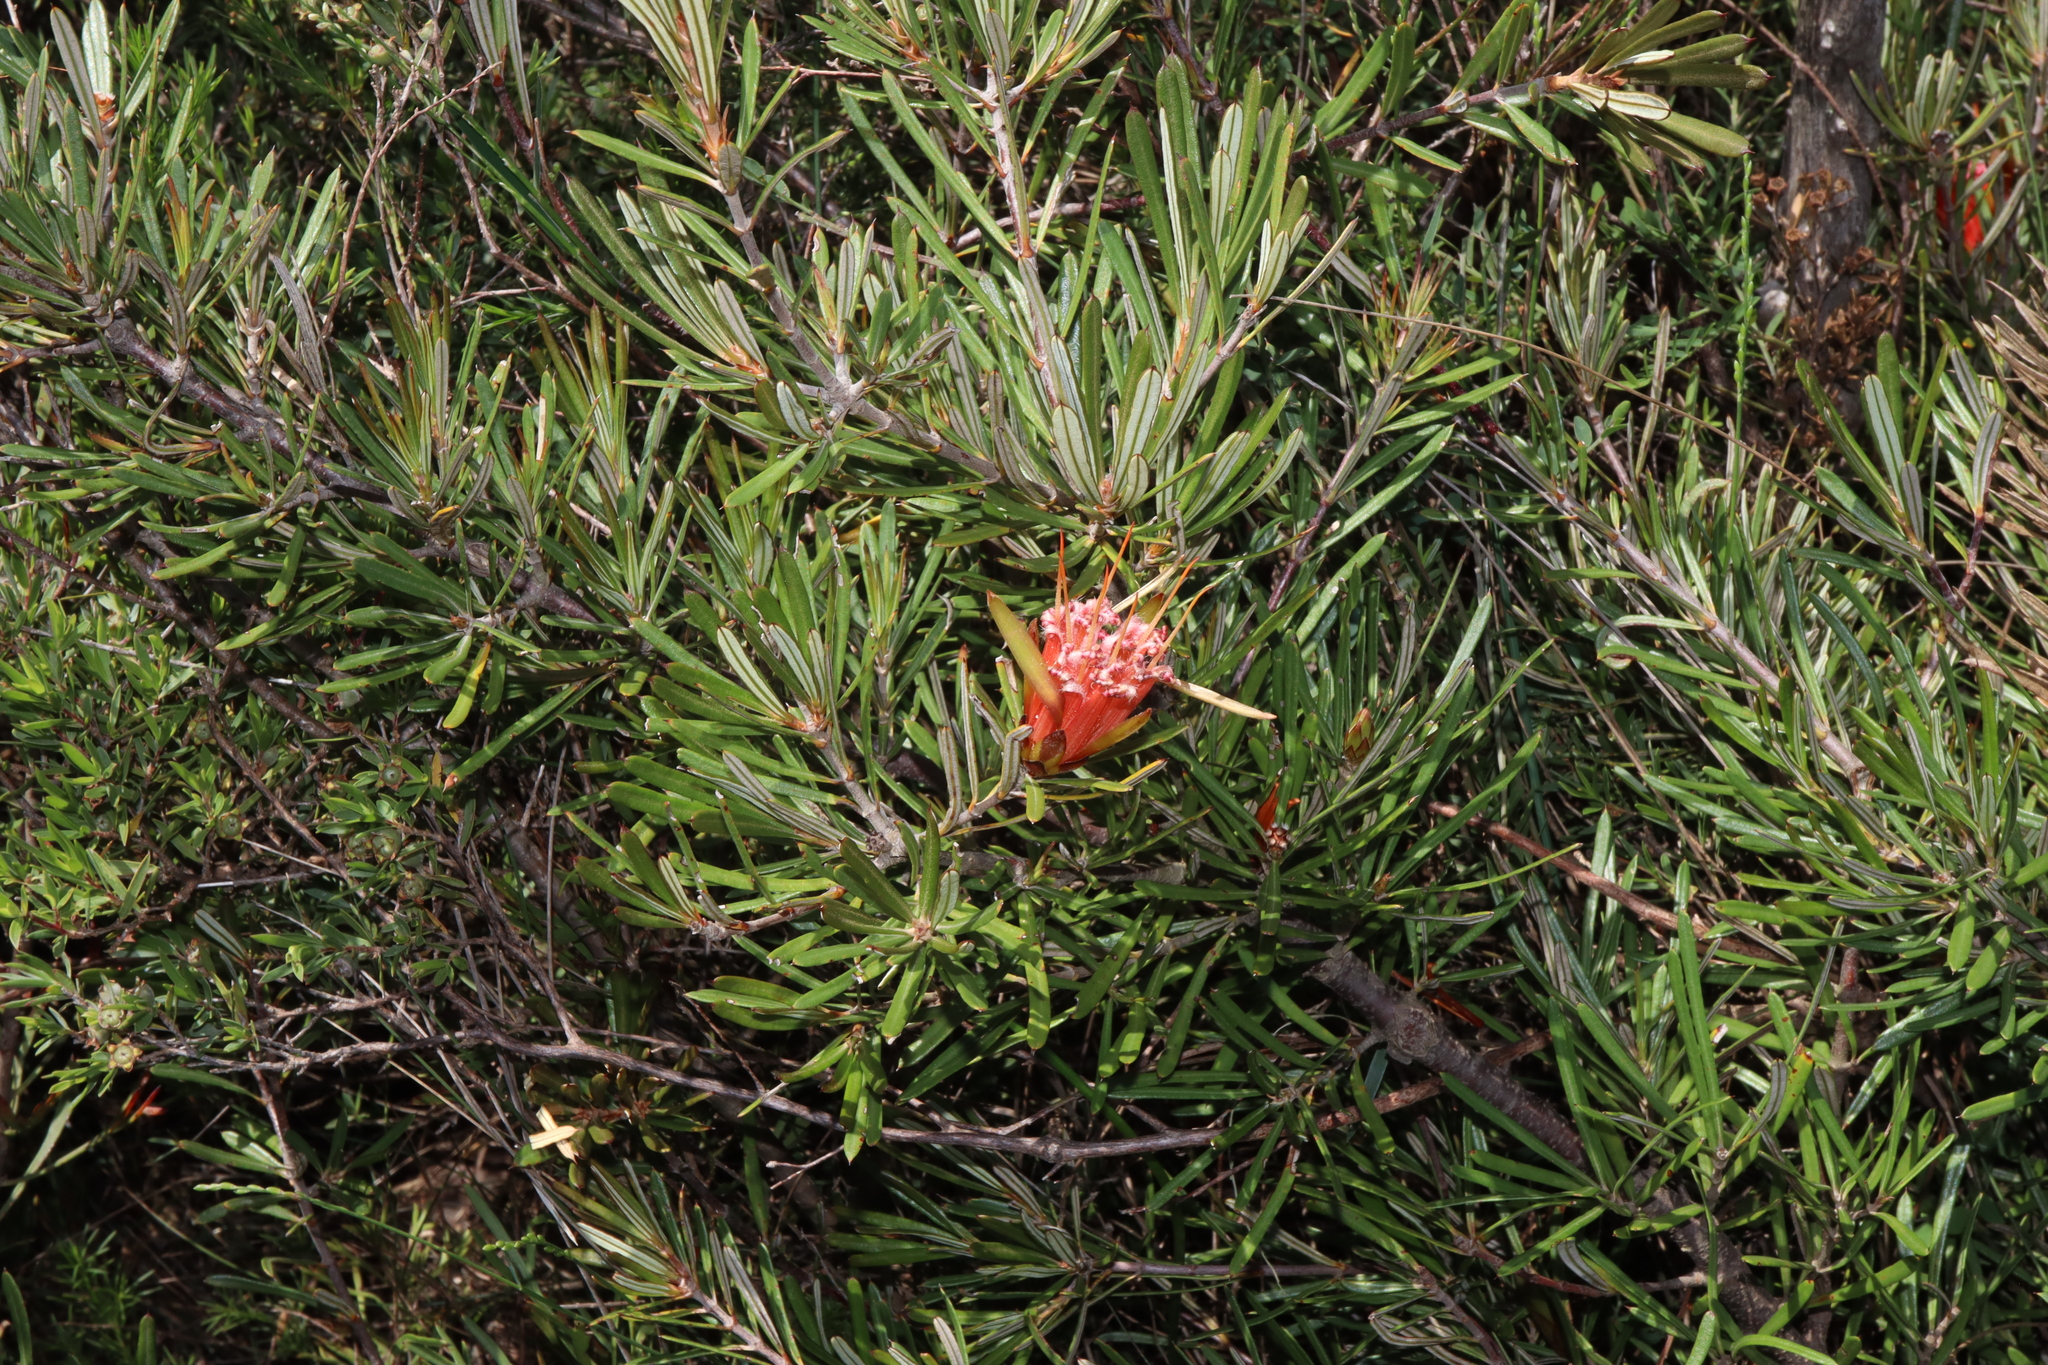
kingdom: Plantae
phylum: Tracheophyta
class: Magnoliopsida
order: Proteales
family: Proteaceae
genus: Lambertia
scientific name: Lambertia formosa
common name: Mountain-devil
